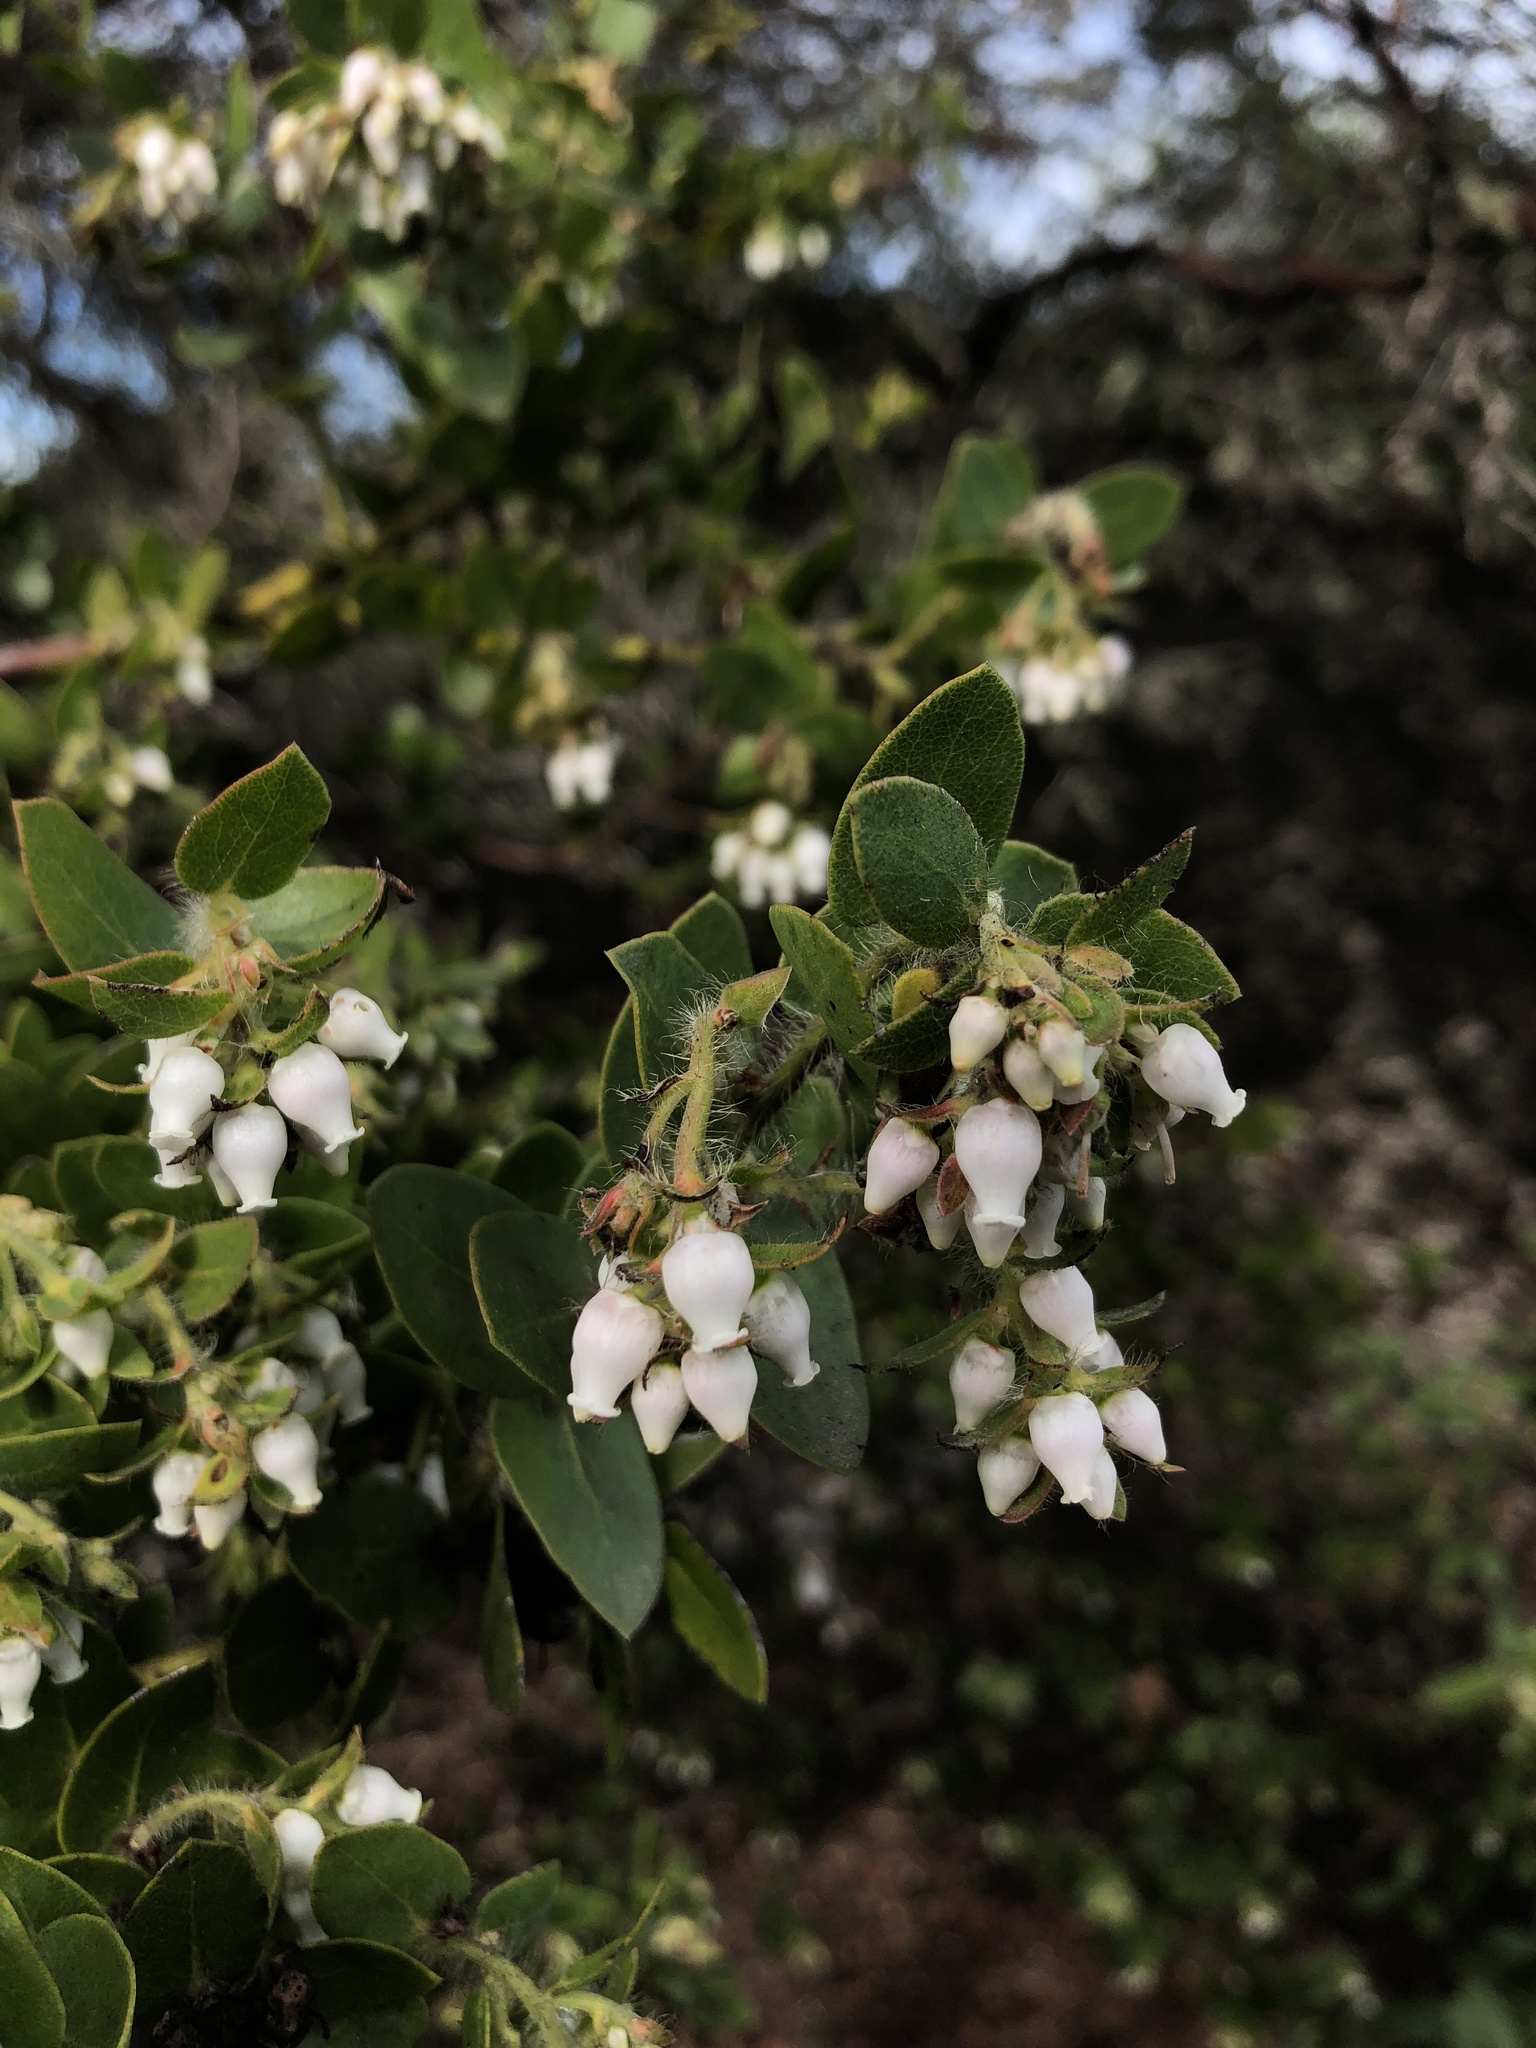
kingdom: Plantae
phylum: Tracheophyta
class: Magnoliopsida
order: Ericales
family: Ericaceae
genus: Arctostaphylos
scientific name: Arctostaphylos purissima
